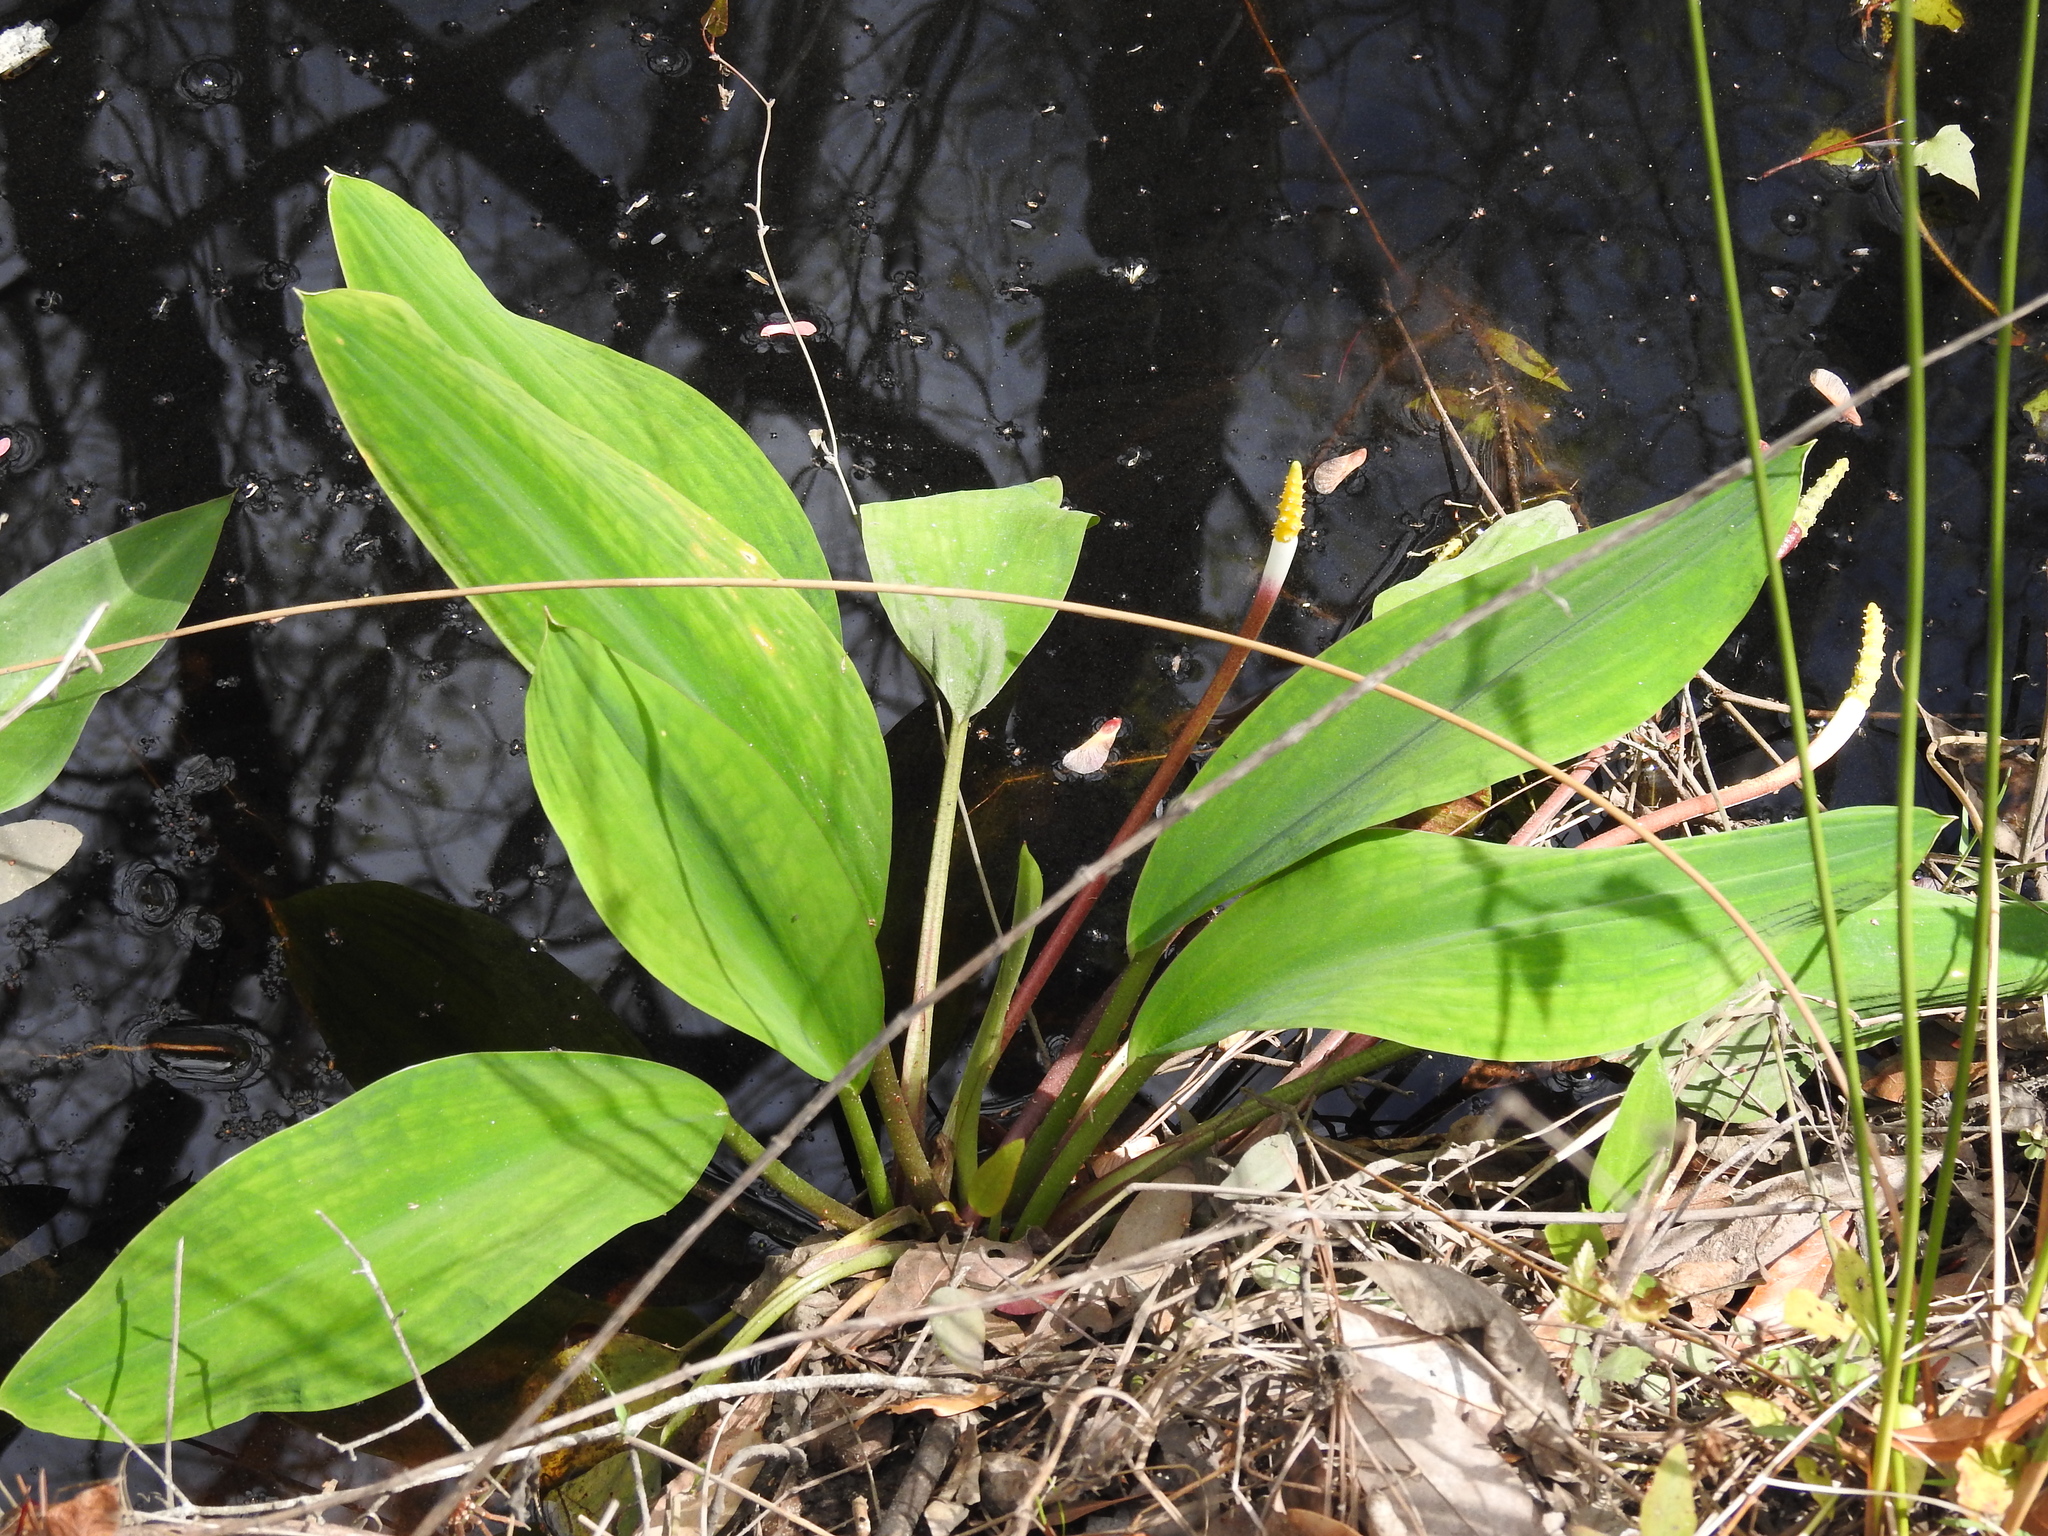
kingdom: Plantae
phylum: Tracheophyta
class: Liliopsida
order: Alismatales
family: Araceae
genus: Orontium
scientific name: Orontium aquaticum
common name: Golden-club
